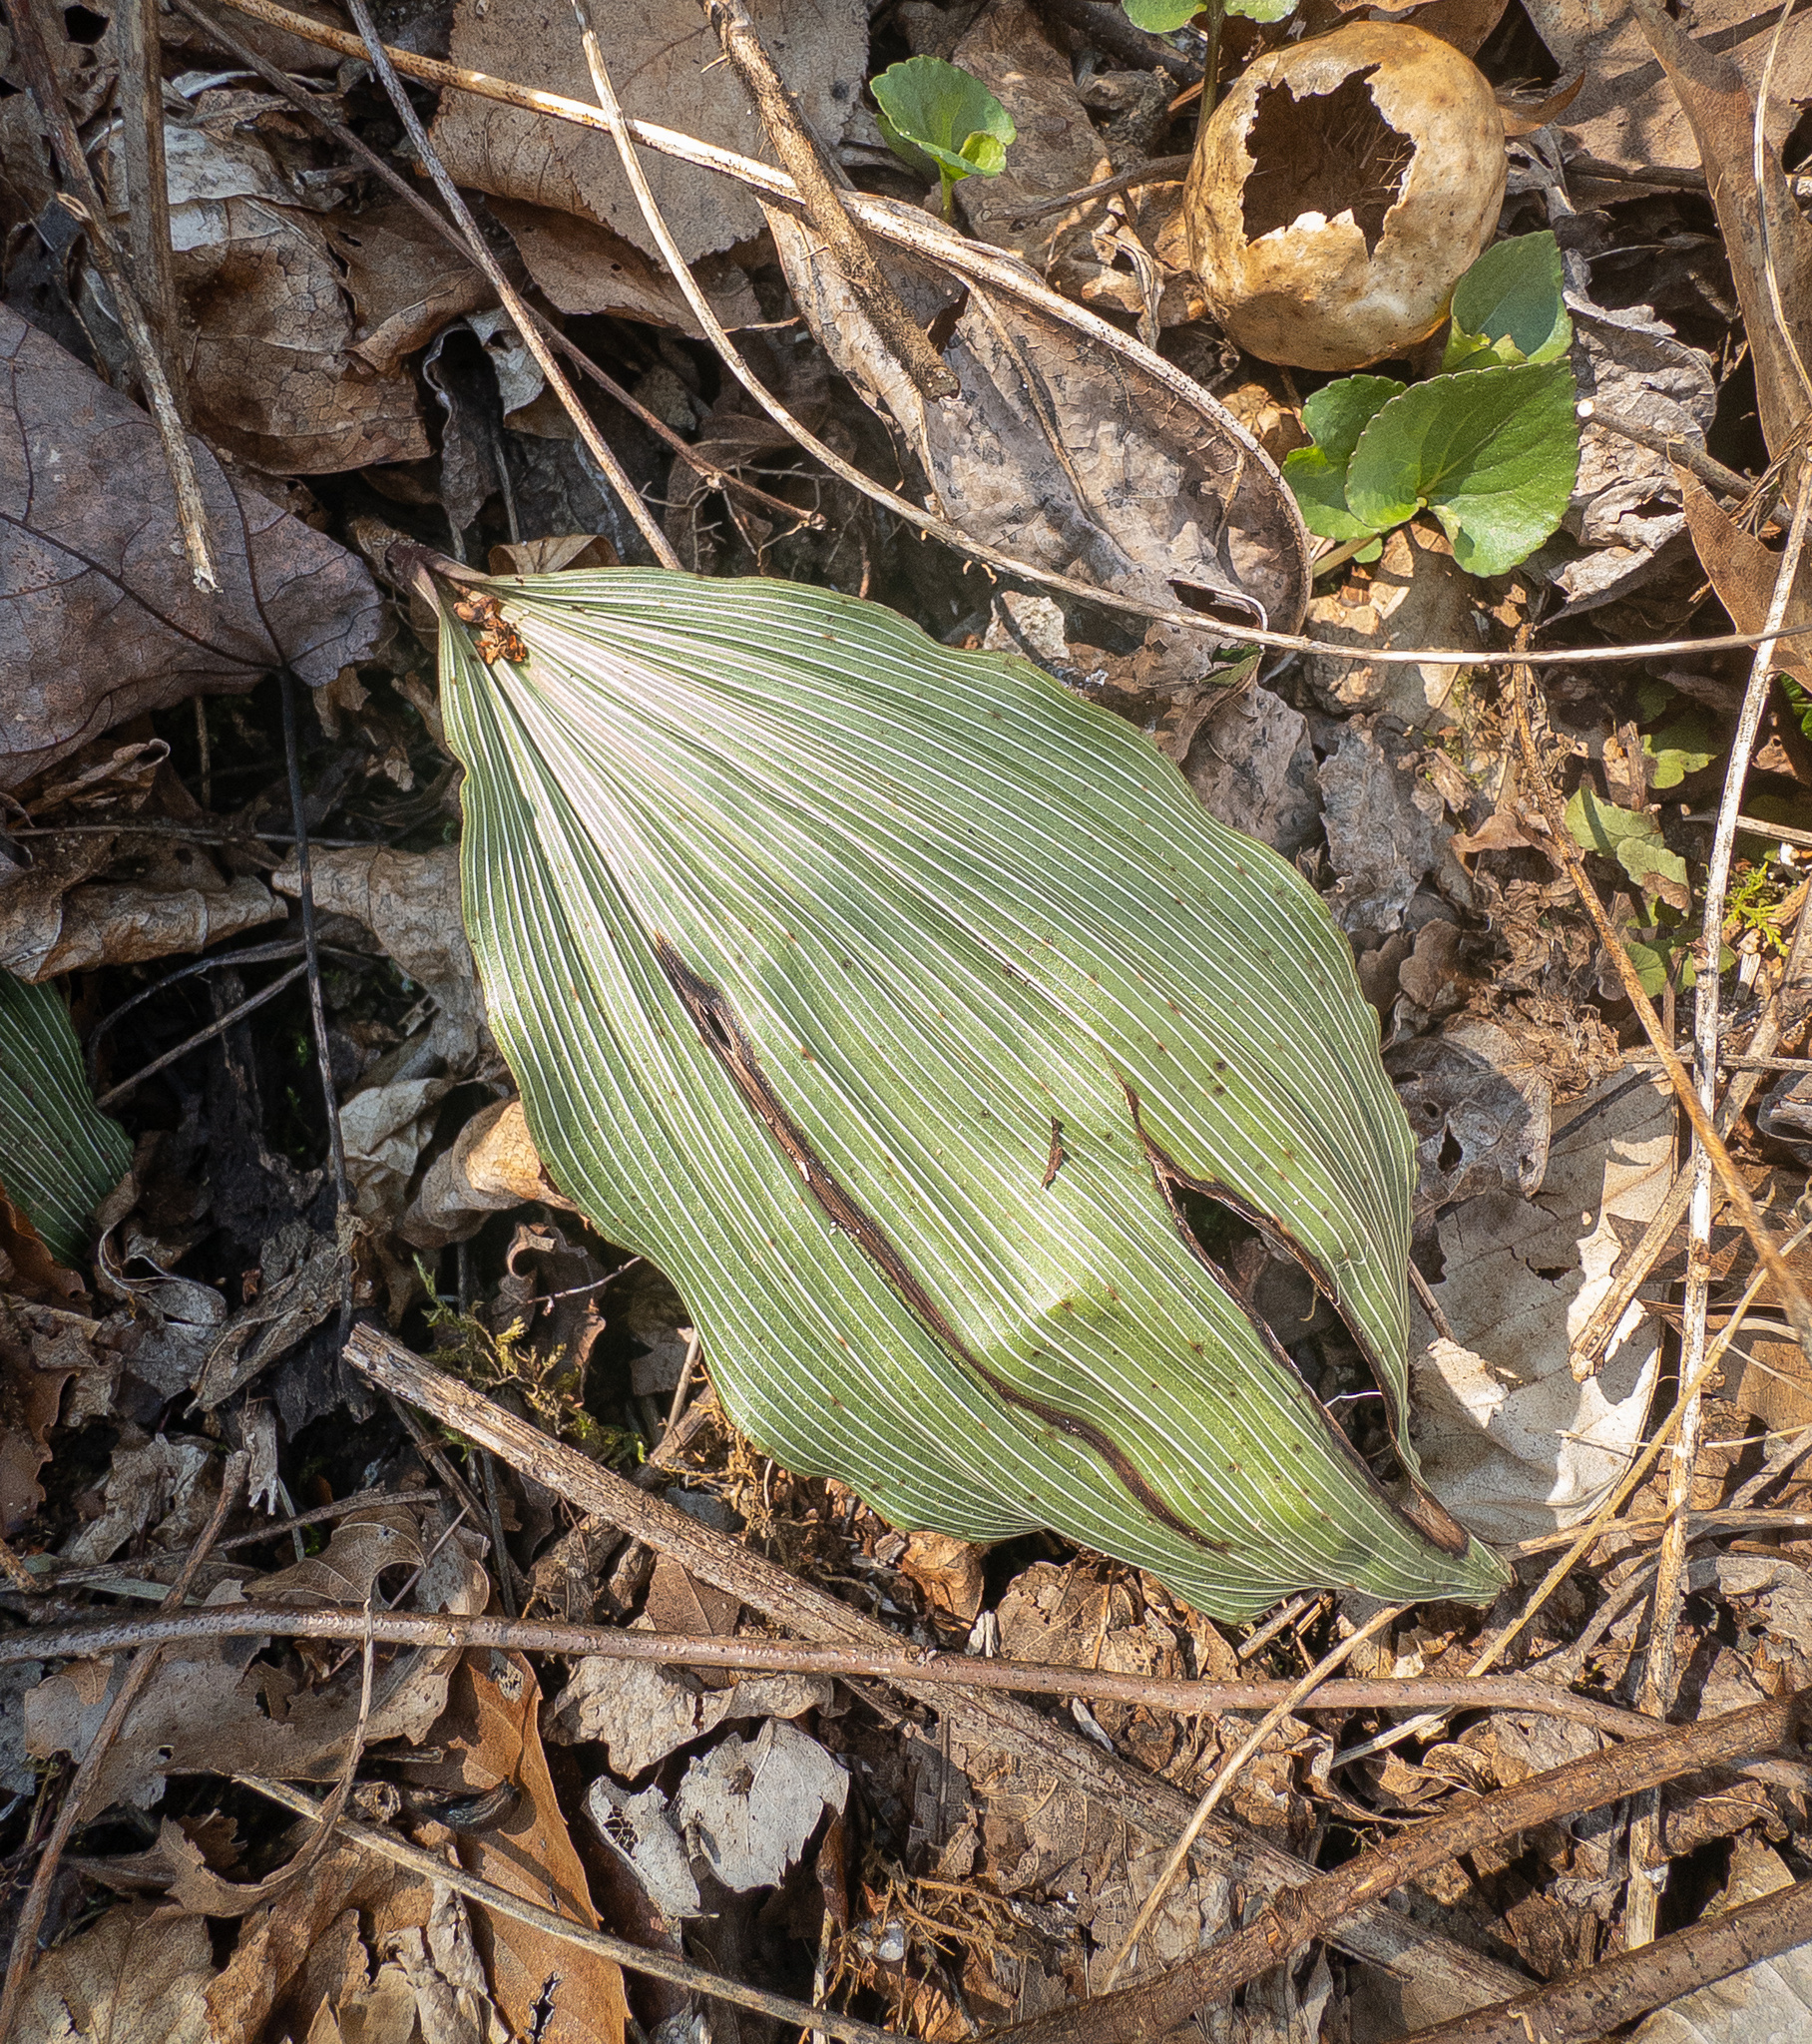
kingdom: Plantae
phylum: Tracheophyta
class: Liliopsida
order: Asparagales
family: Orchidaceae
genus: Aplectrum
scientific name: Aplectrum hyemale
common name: Adam-and-eve
